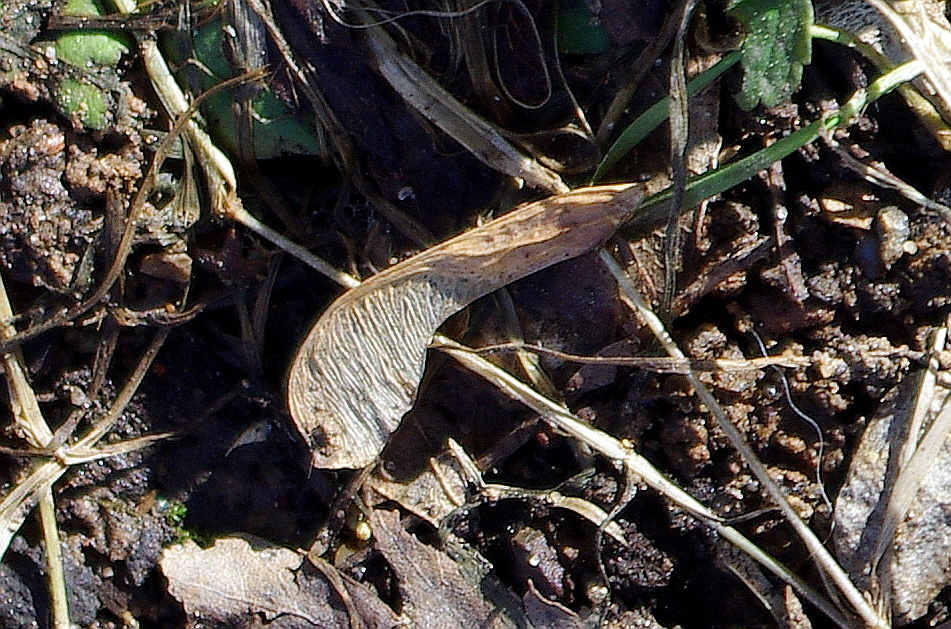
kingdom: Plantae
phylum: Tracheophyta
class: Magnoliopsida
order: Sapindales
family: Sapindaceae
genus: Acer
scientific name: Acer negundo
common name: Ashleaf maple
